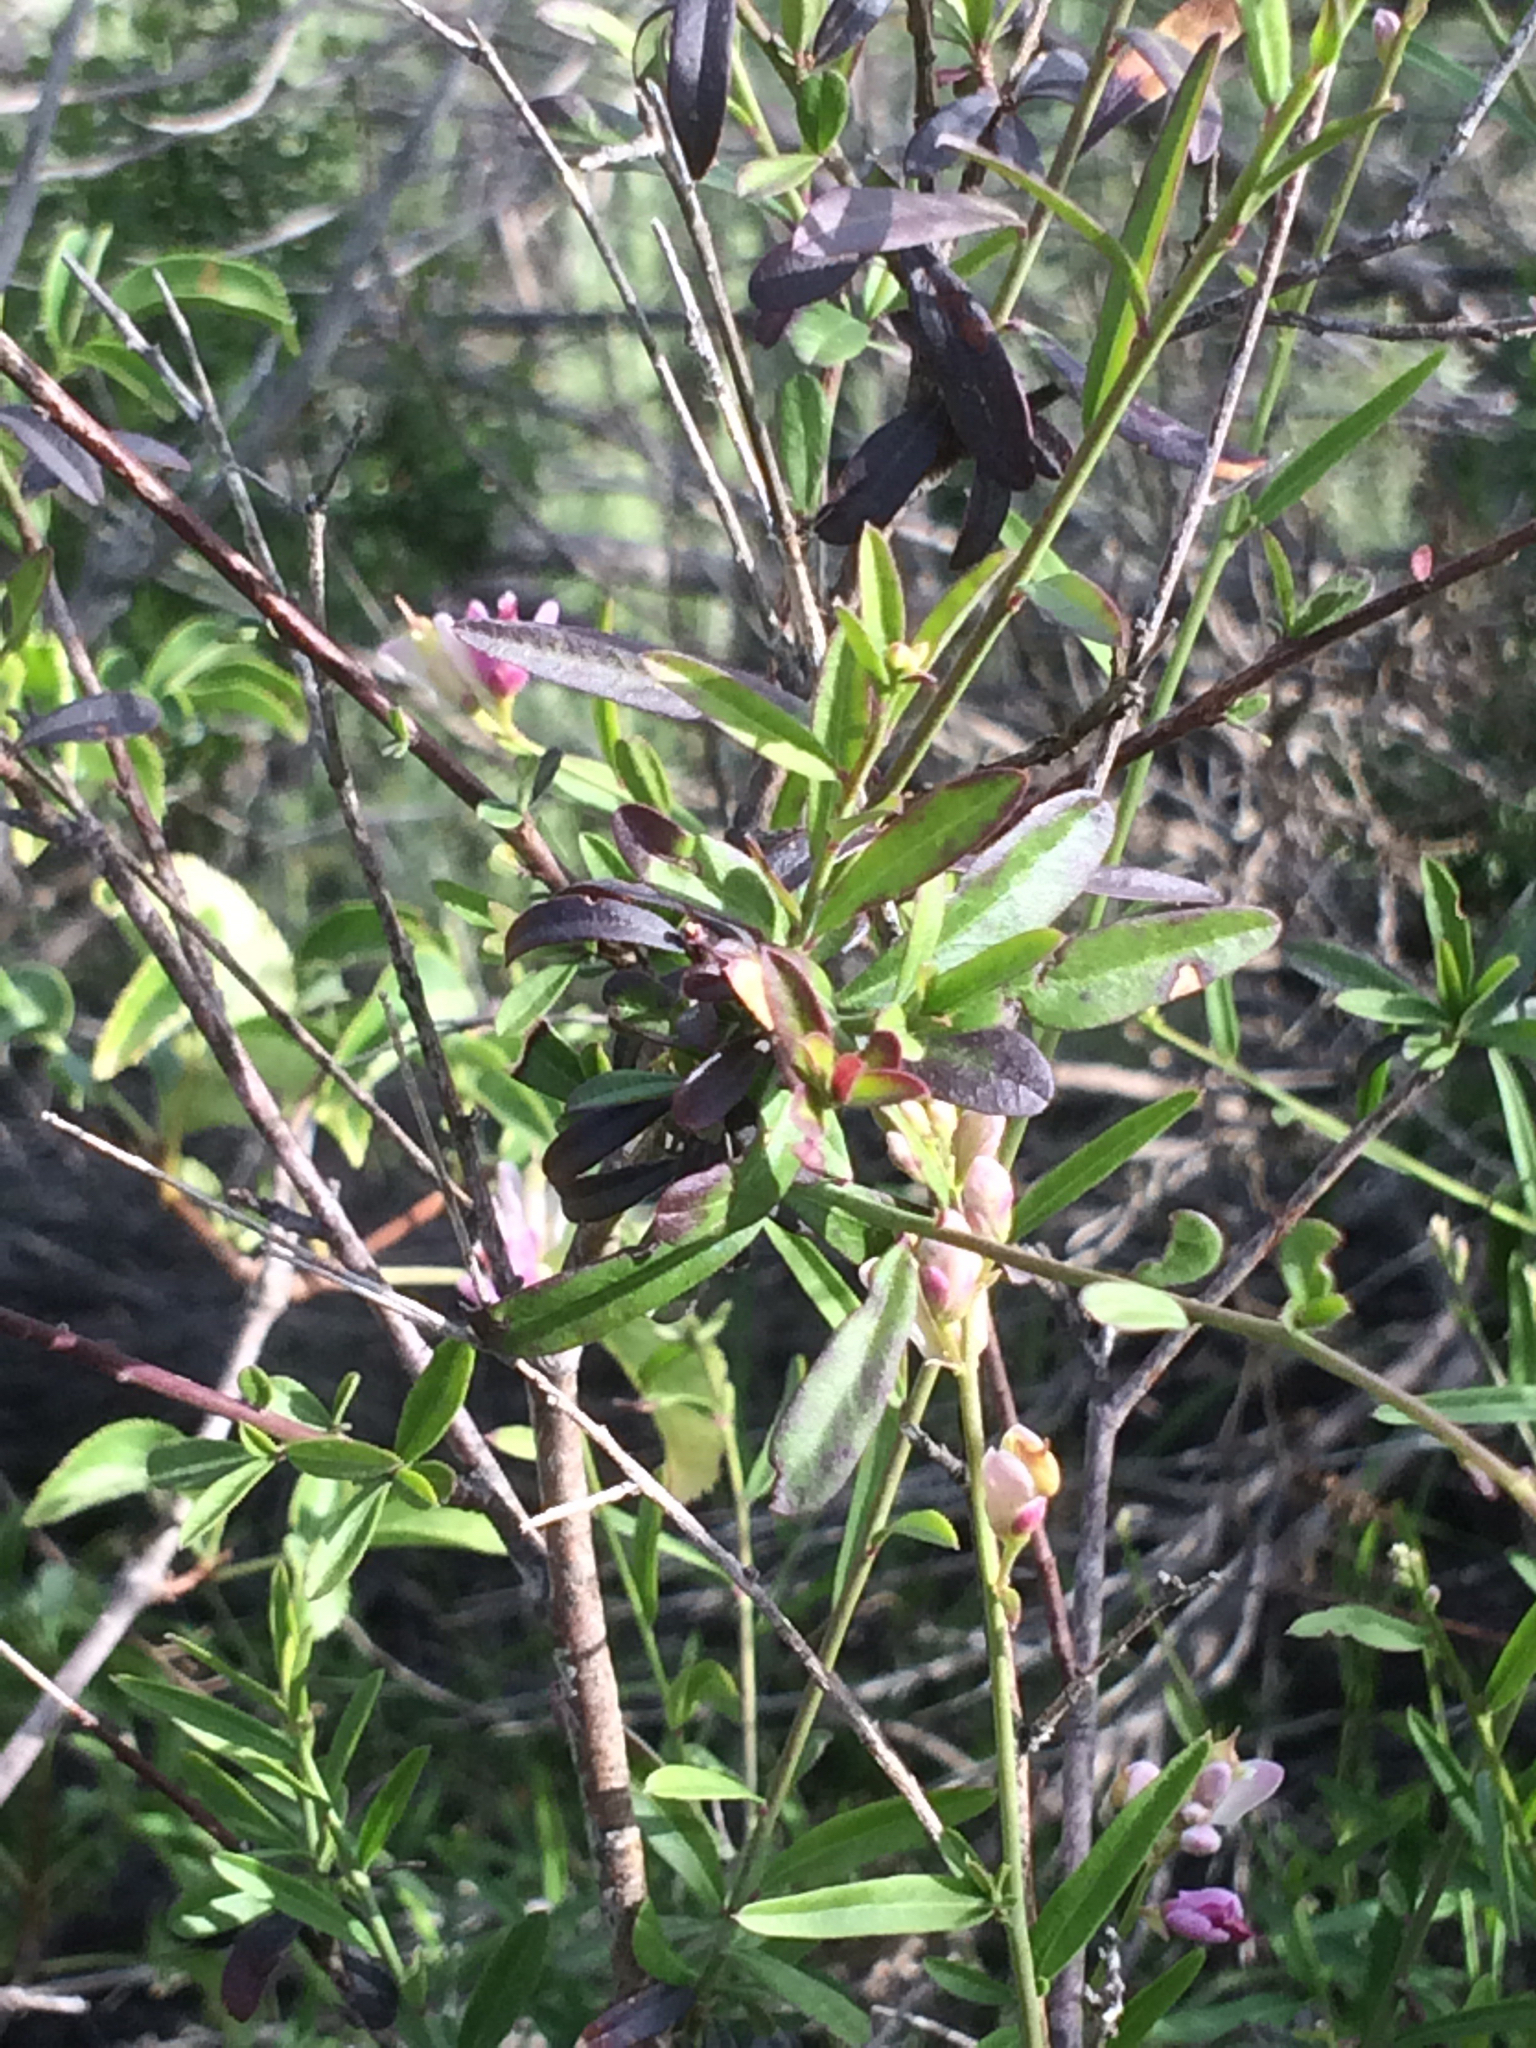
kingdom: Plantae
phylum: Tracheophyta
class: Magnoliopsida
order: Fabales
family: Polygalaceae
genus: Rhinotropis
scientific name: Rhinotropis cornuta
